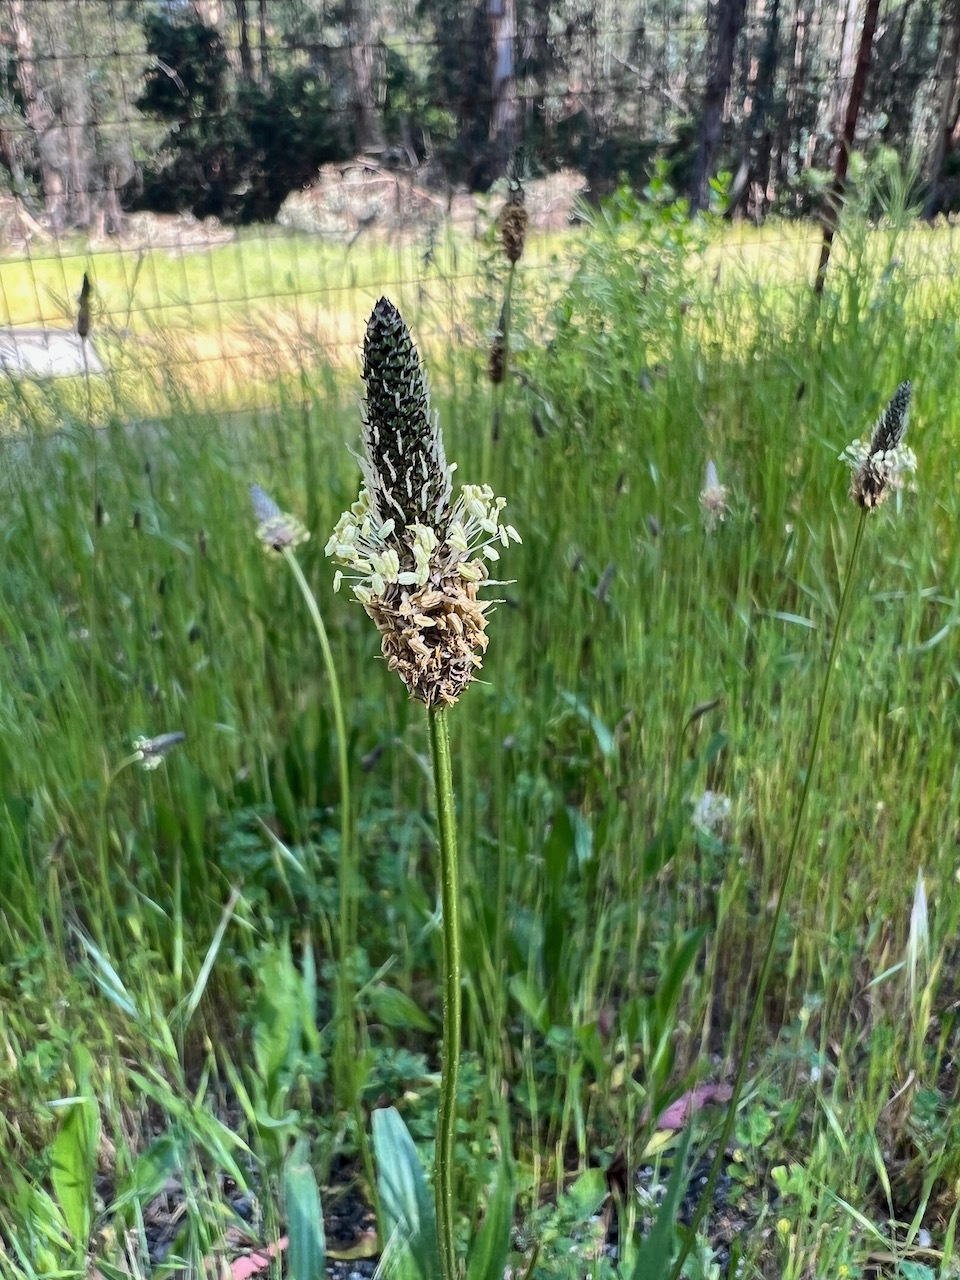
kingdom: Plantae
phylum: Tracheophyta
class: Magnoliopsida
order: Lamiales
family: Plantaginaceae
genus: Plantago
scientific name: Plantago lanceolata
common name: Ribwort plantain
